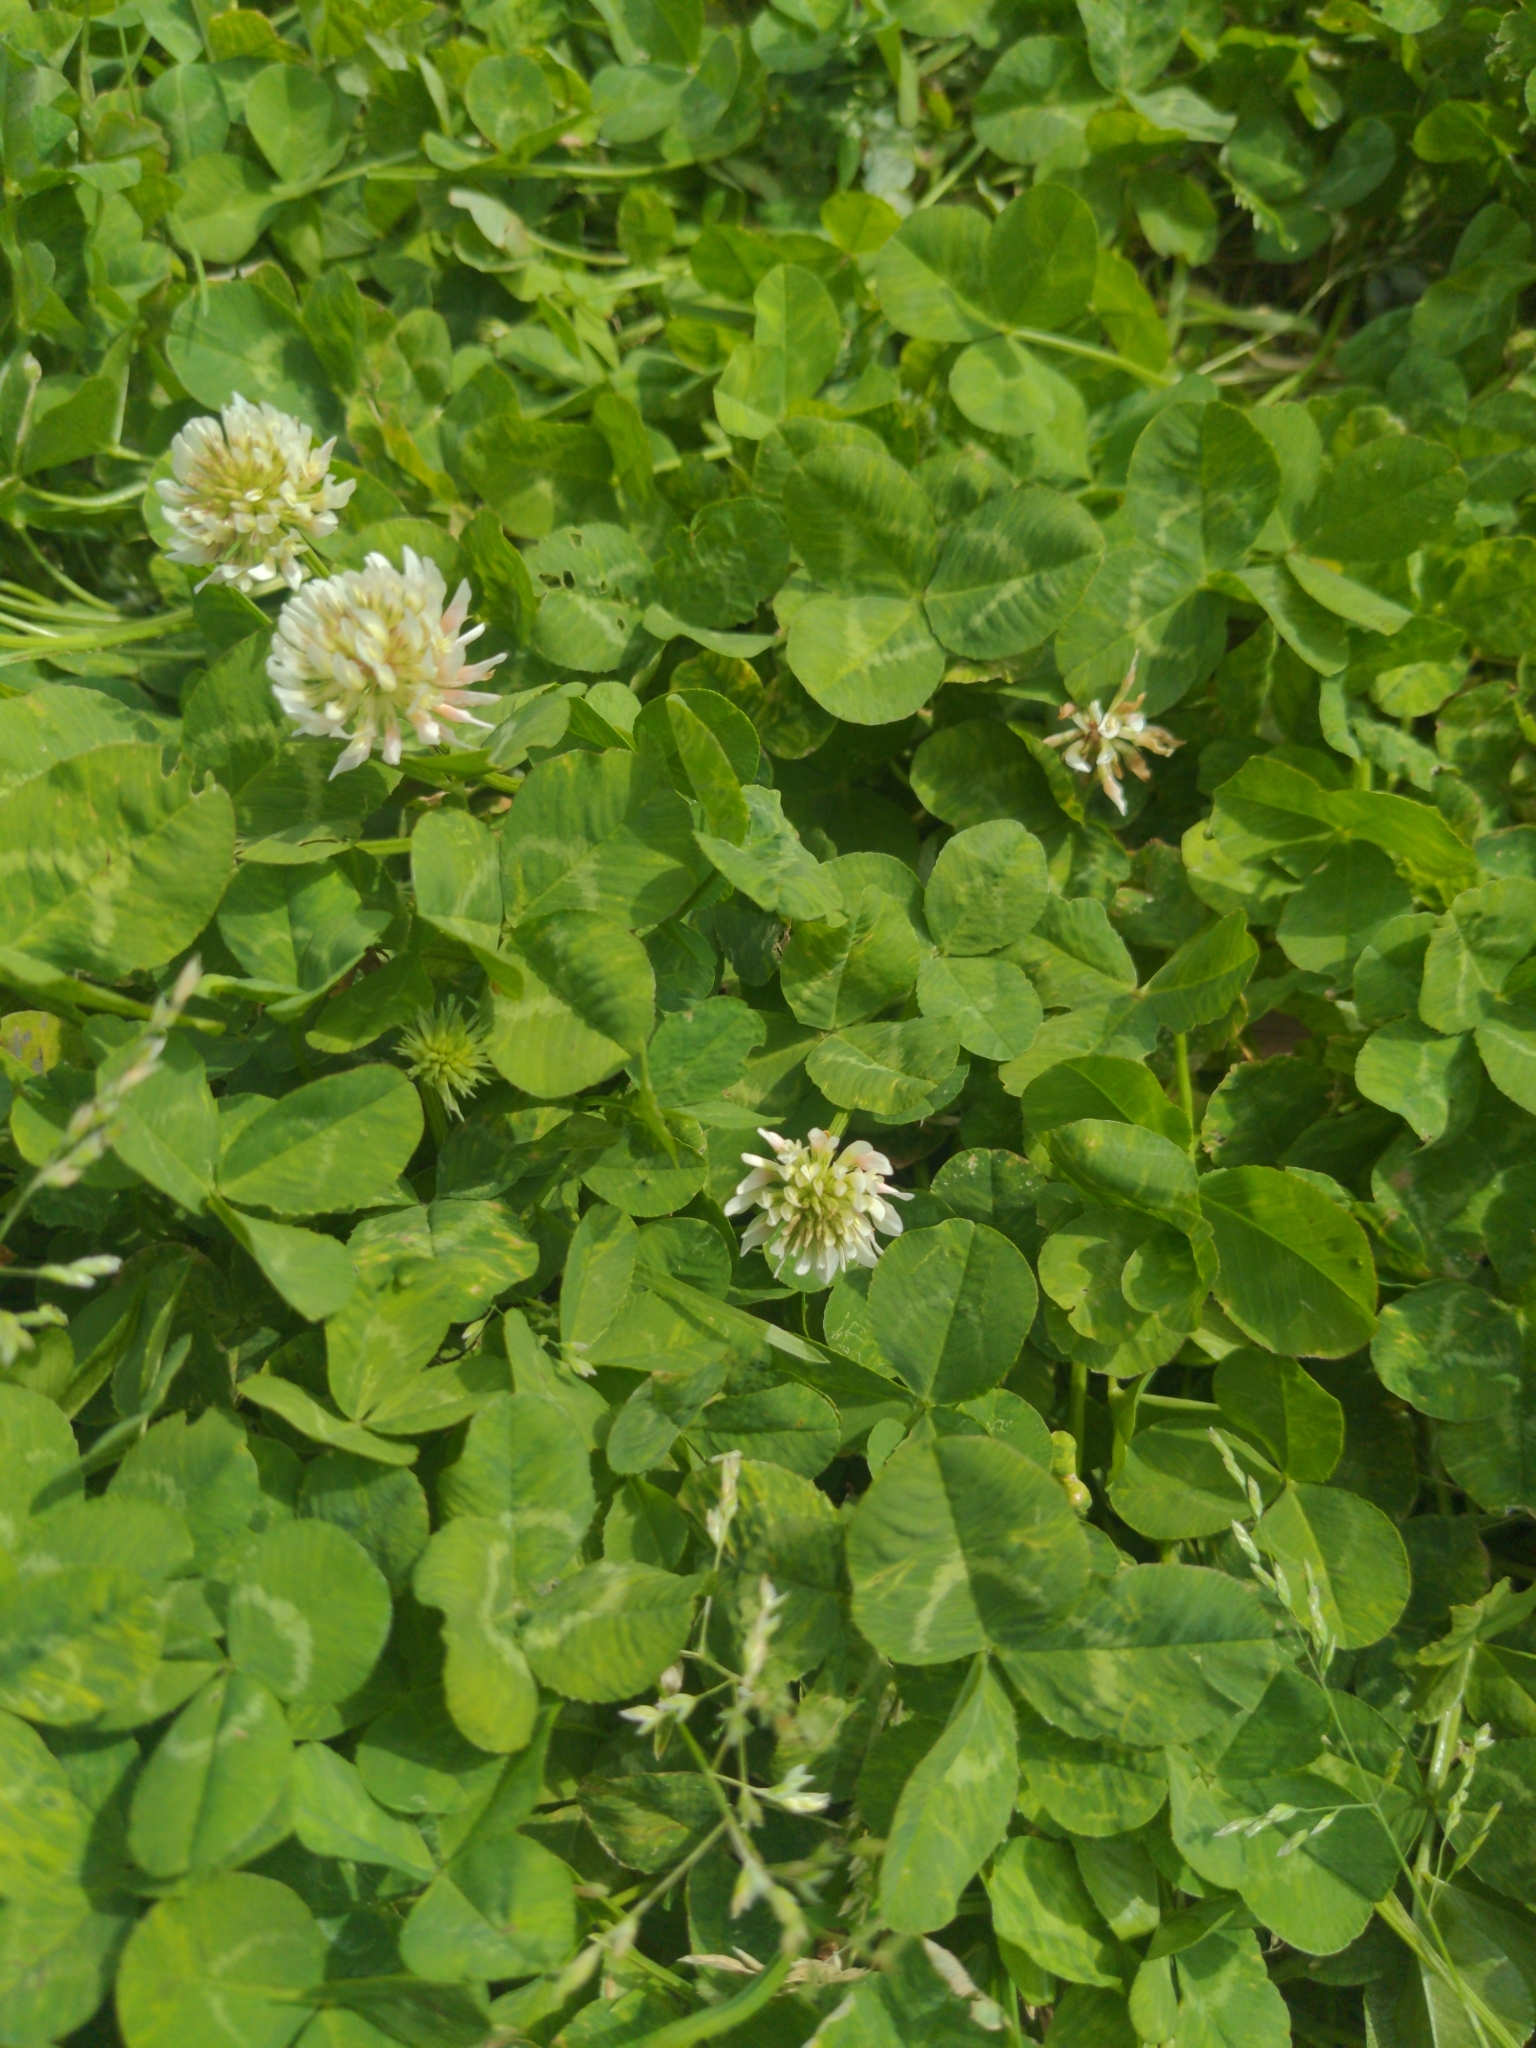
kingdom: Plantae
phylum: Tracheophyta
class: Magnoliopsida
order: Fabales
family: Fabaceae
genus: Trifolium
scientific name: Trifolium repens
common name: White clover
